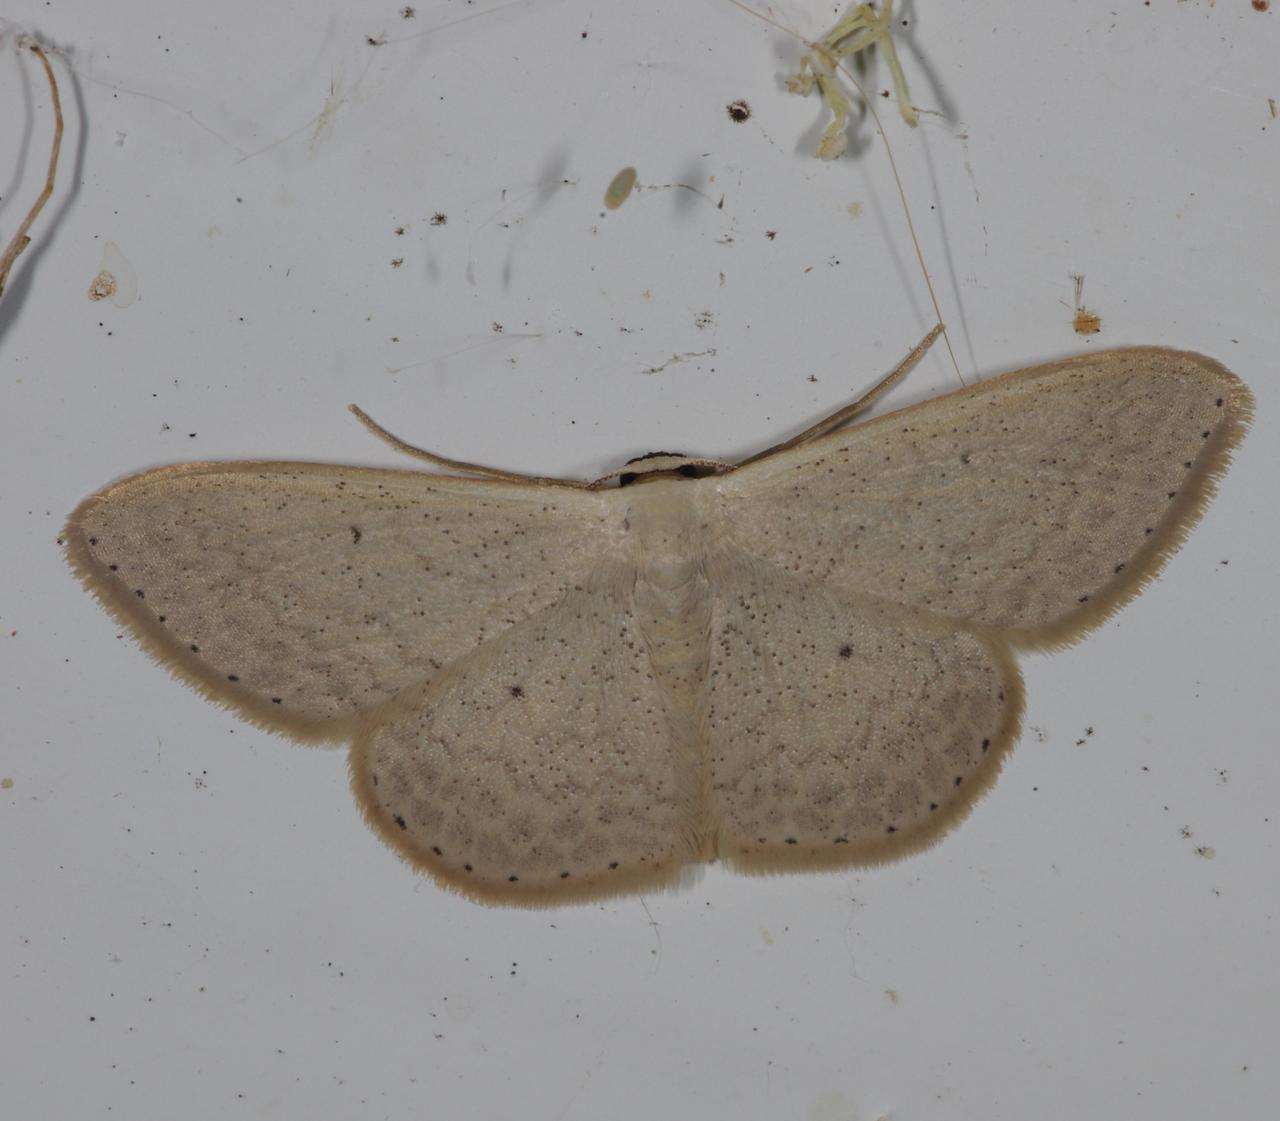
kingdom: Animalia
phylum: Arthropoda
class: Insecta
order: Lepidoptera
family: Geometridae
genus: Scopula
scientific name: Scopula optivata
